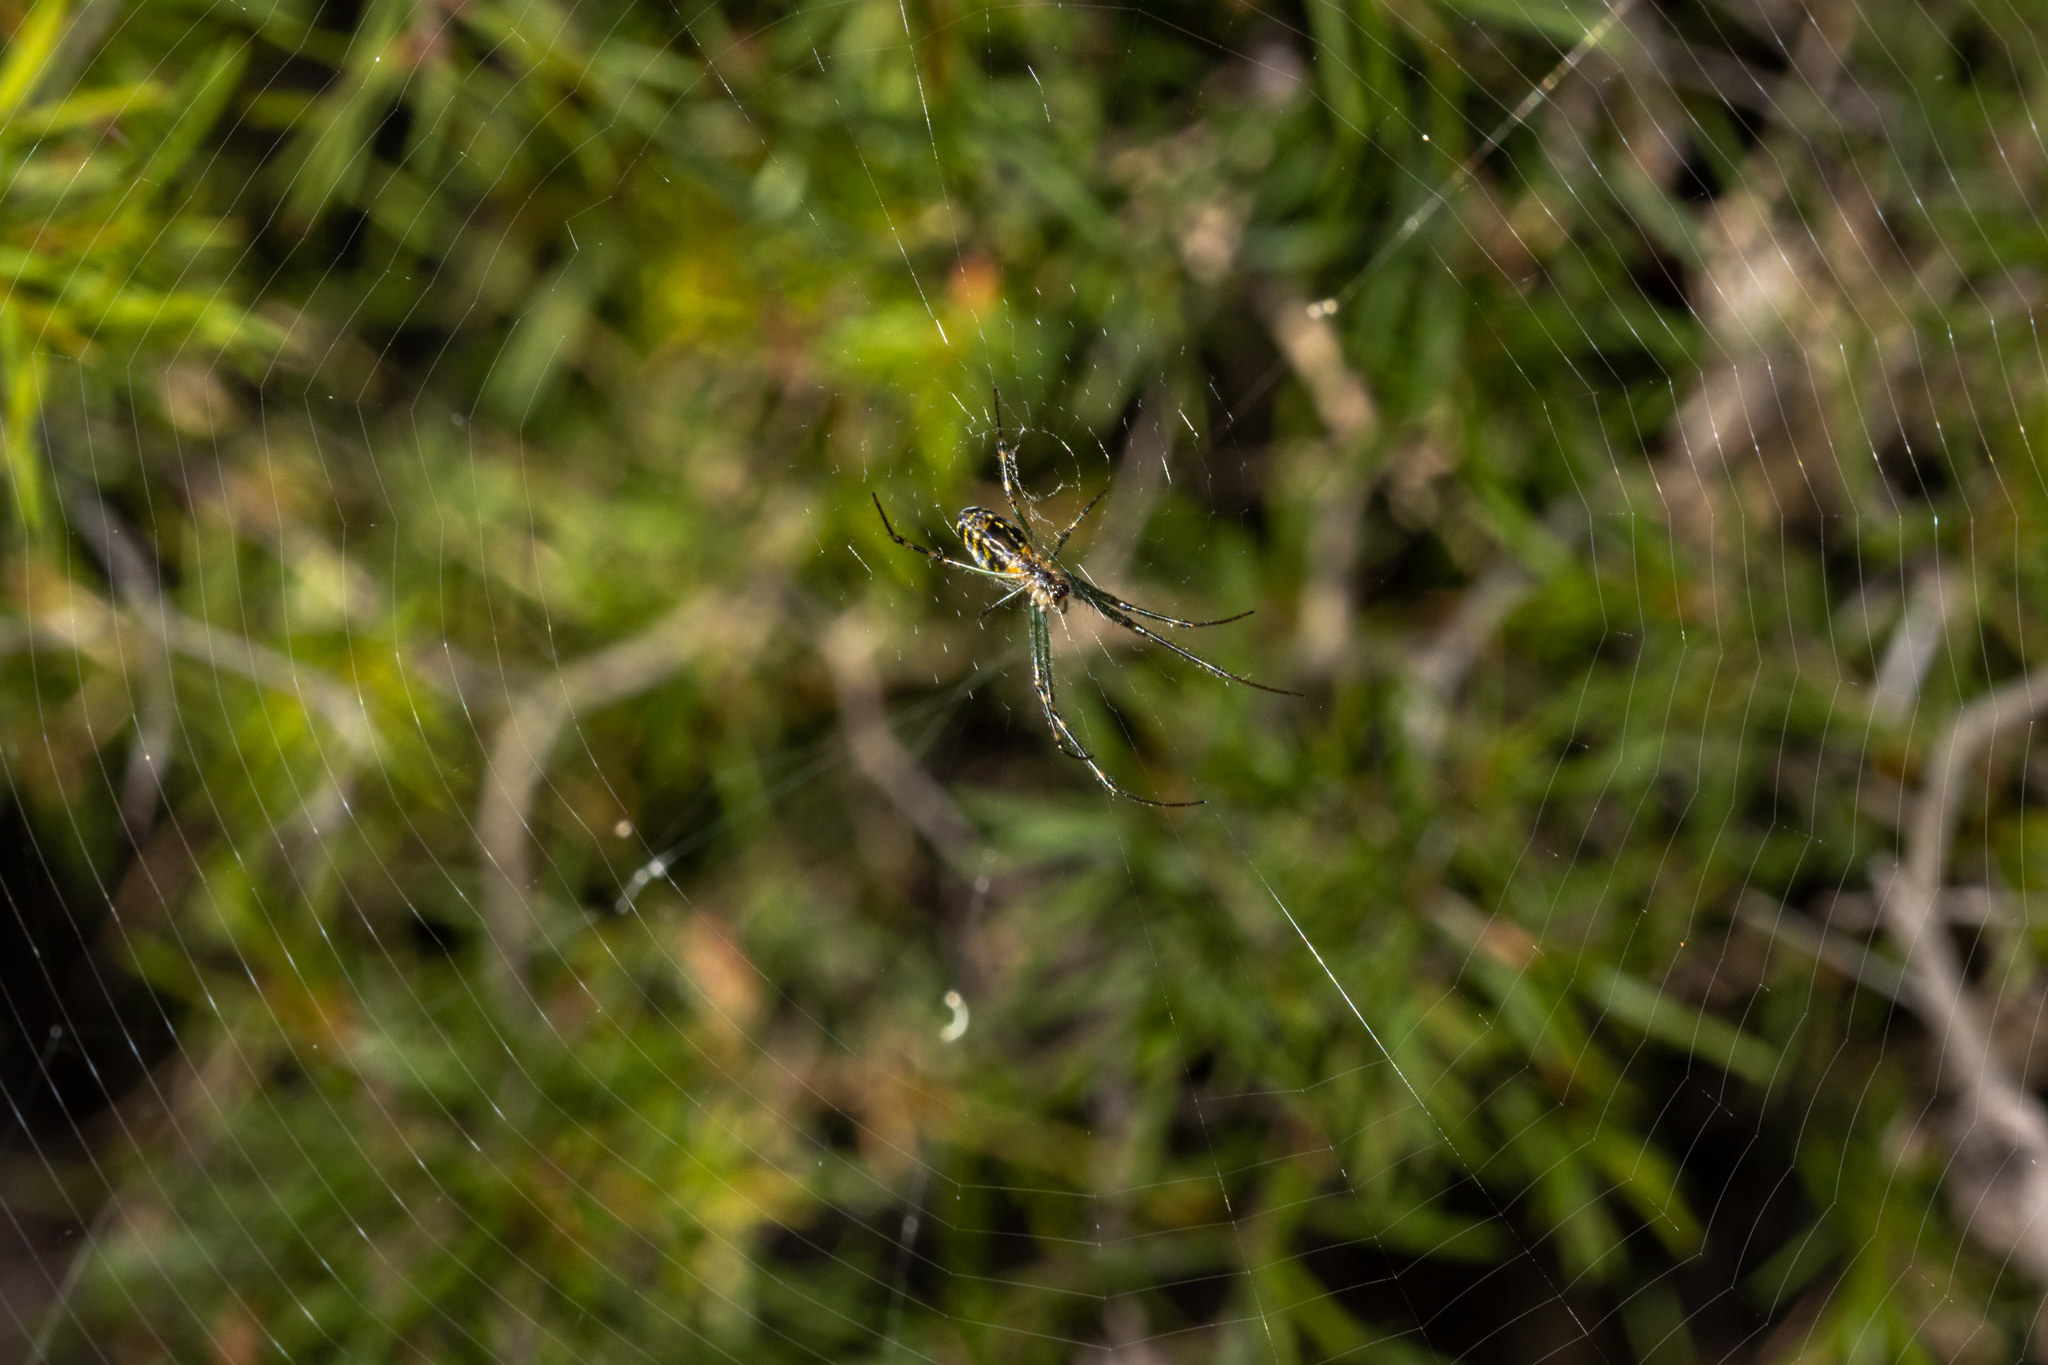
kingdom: Animalia
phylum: Arthropoda
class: Arachnida
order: Araneae
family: Tetragnathidae
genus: Leucauge
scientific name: Leucauge dromedaria
